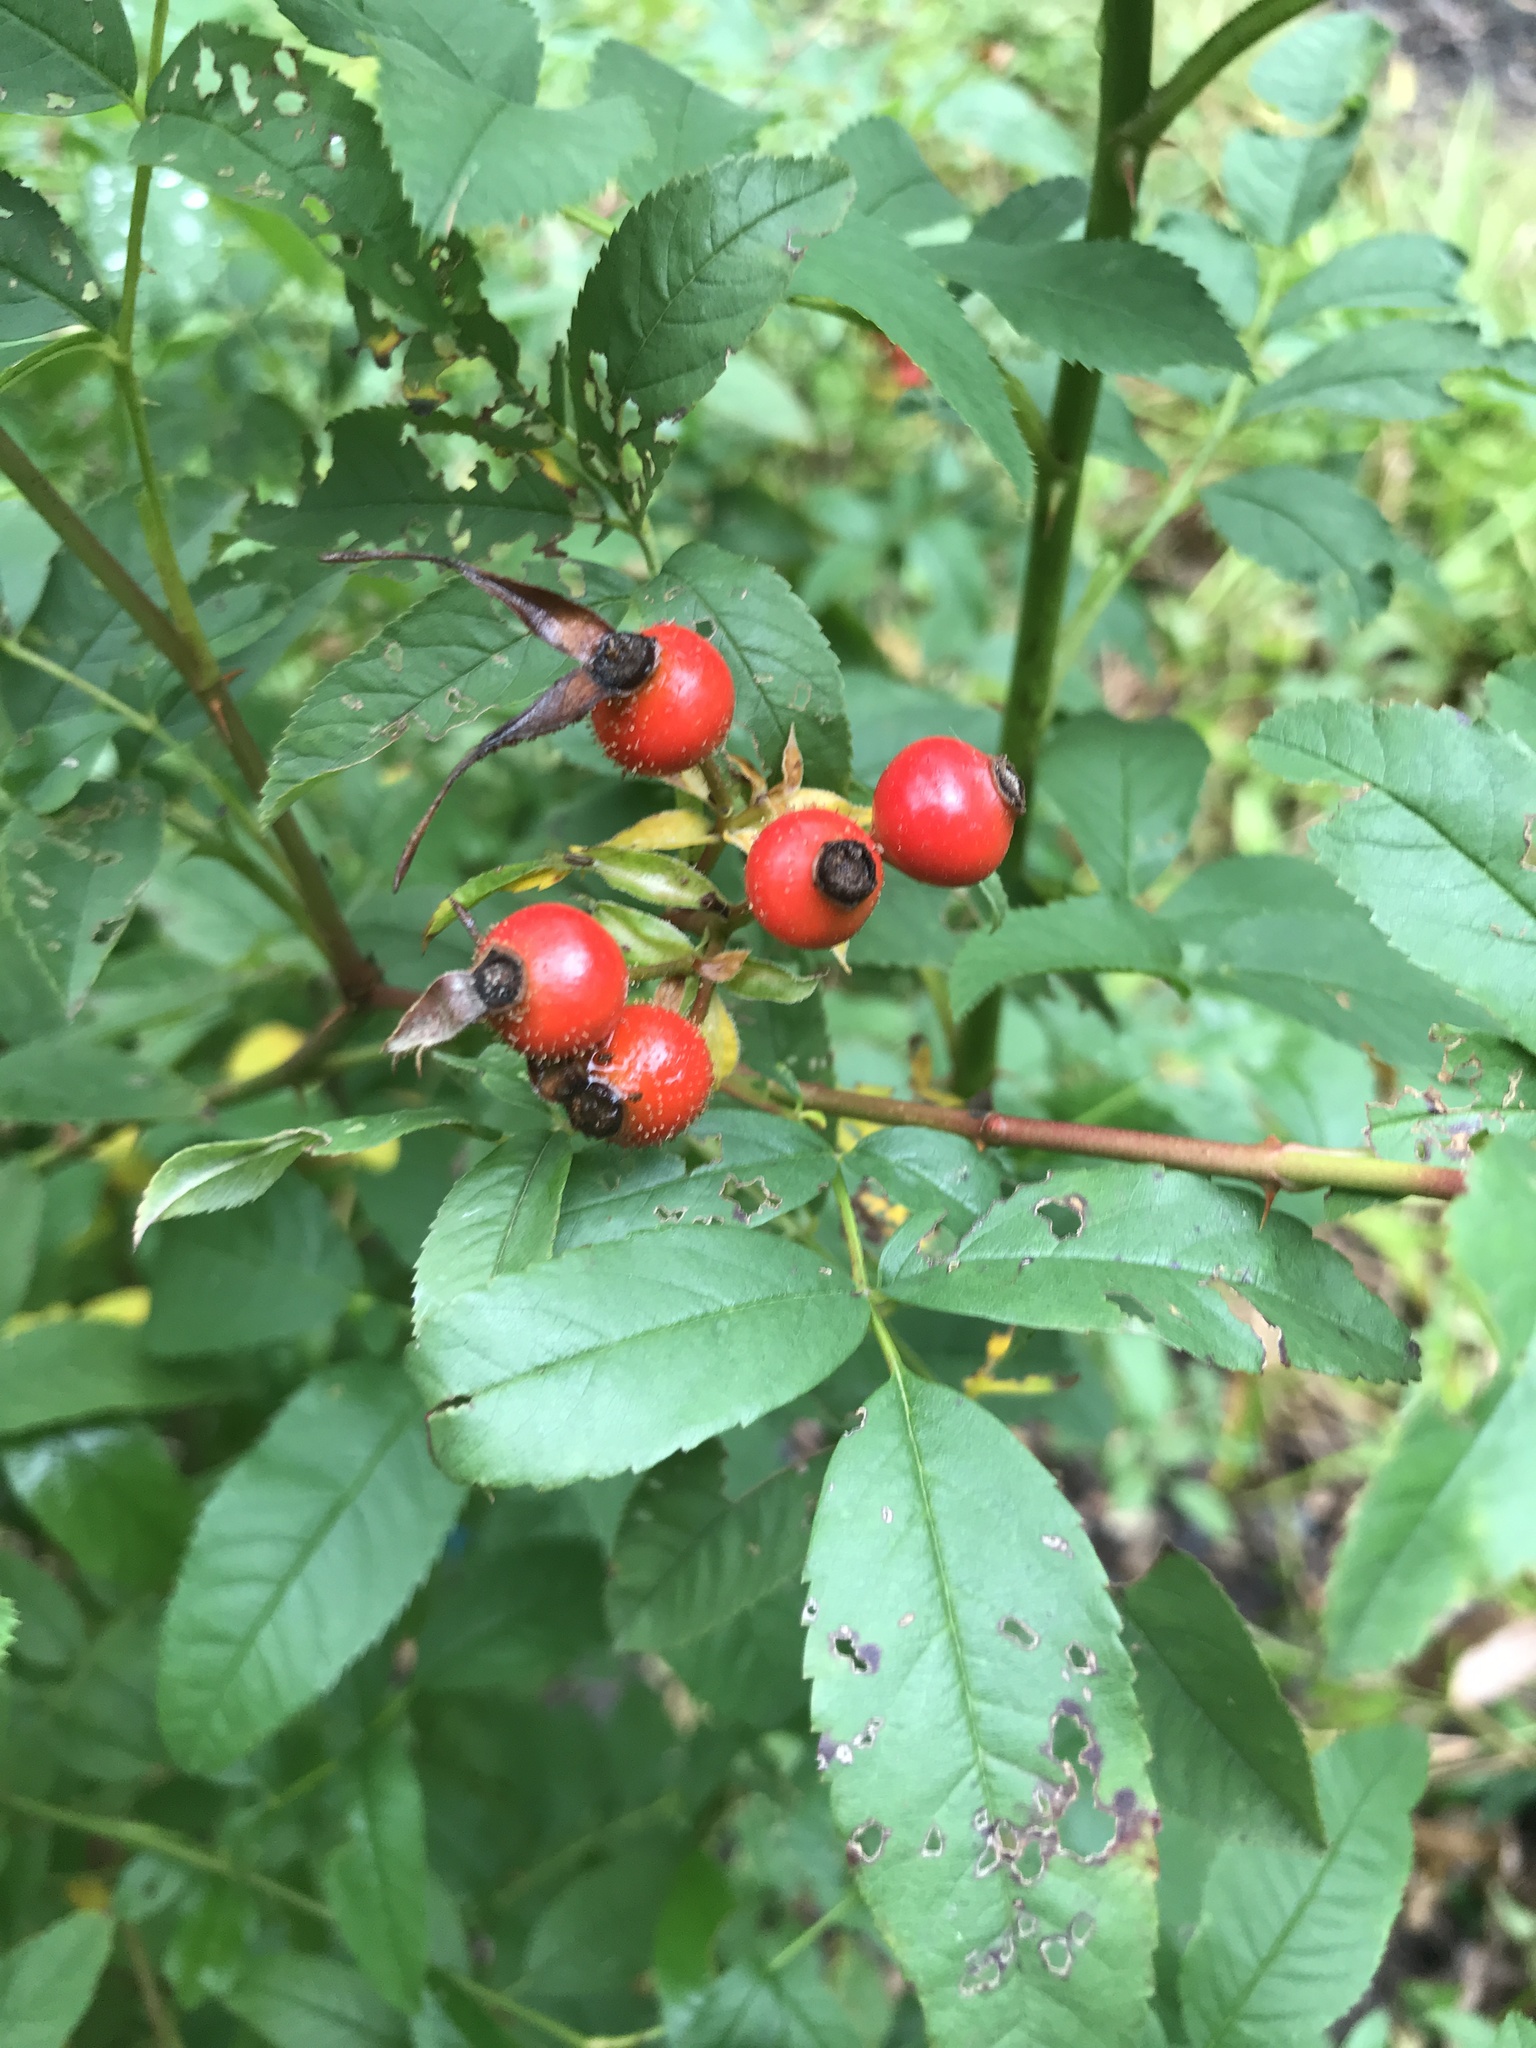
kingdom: Plantae
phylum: Tracheophyta
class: Magnoliopsida
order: Rosales
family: Rosaceae
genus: Rosa
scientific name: Rosa palustris
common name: Swamp rose
